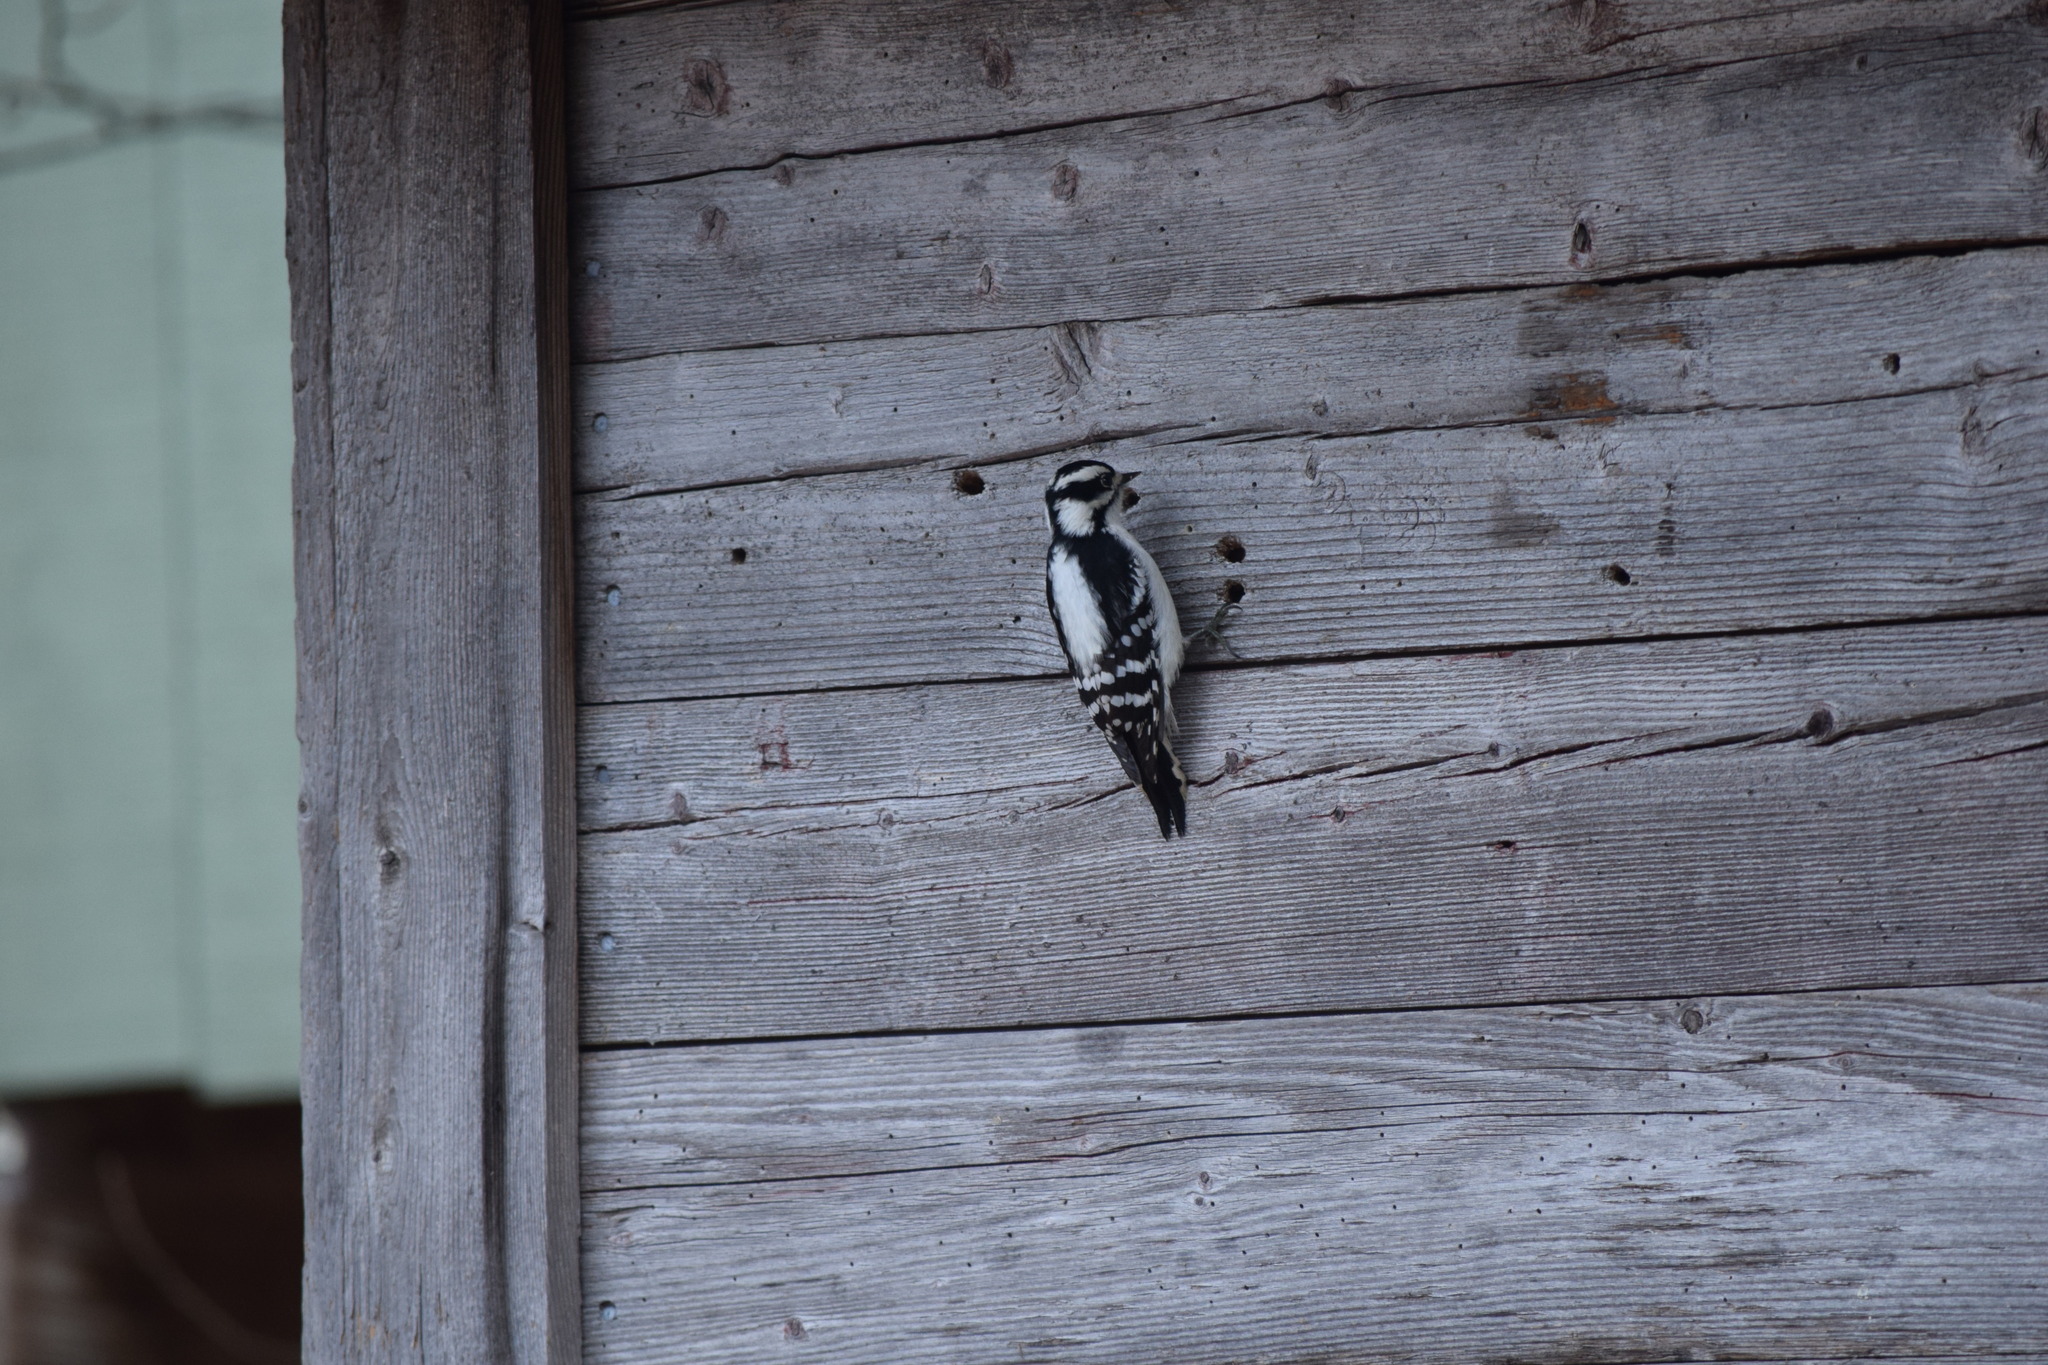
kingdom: Animalia
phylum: Chordata
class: Aves
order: Piciformes
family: Picidae
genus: Dryobates
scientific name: Dryobates pubescens
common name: Downy woodpecker
